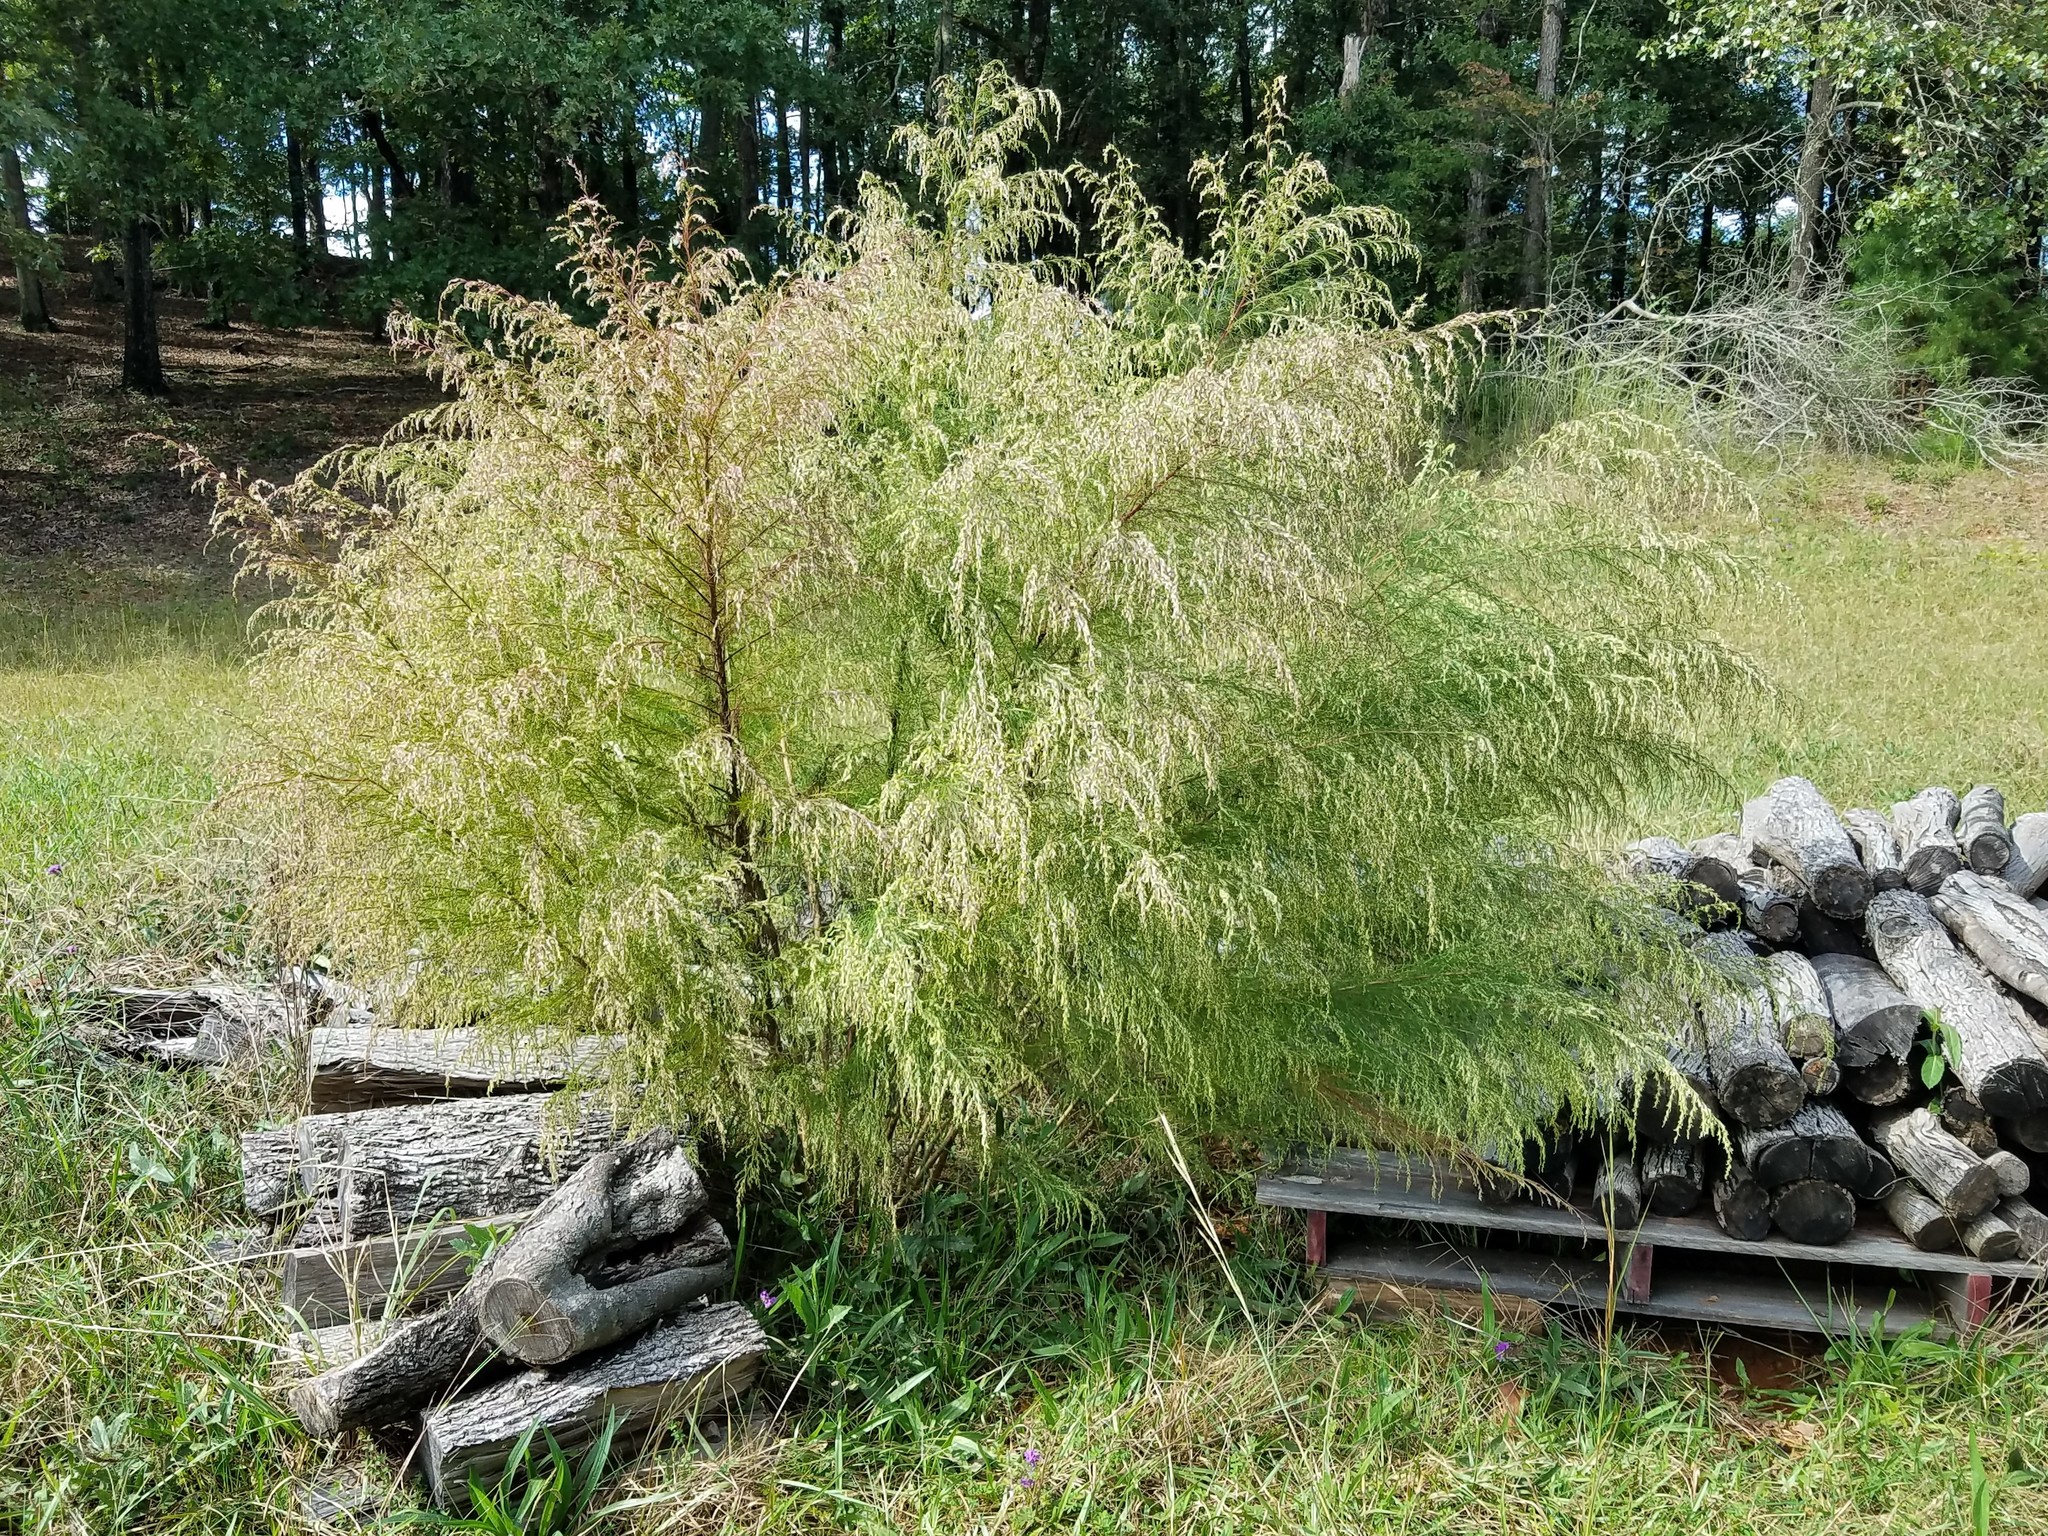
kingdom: Plantae
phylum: Tracheophyta
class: Magnoliopsida
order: Asterales
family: Asteraceae
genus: Eupatorium
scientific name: Eupatorium capillifolium
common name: Dog-fennel
